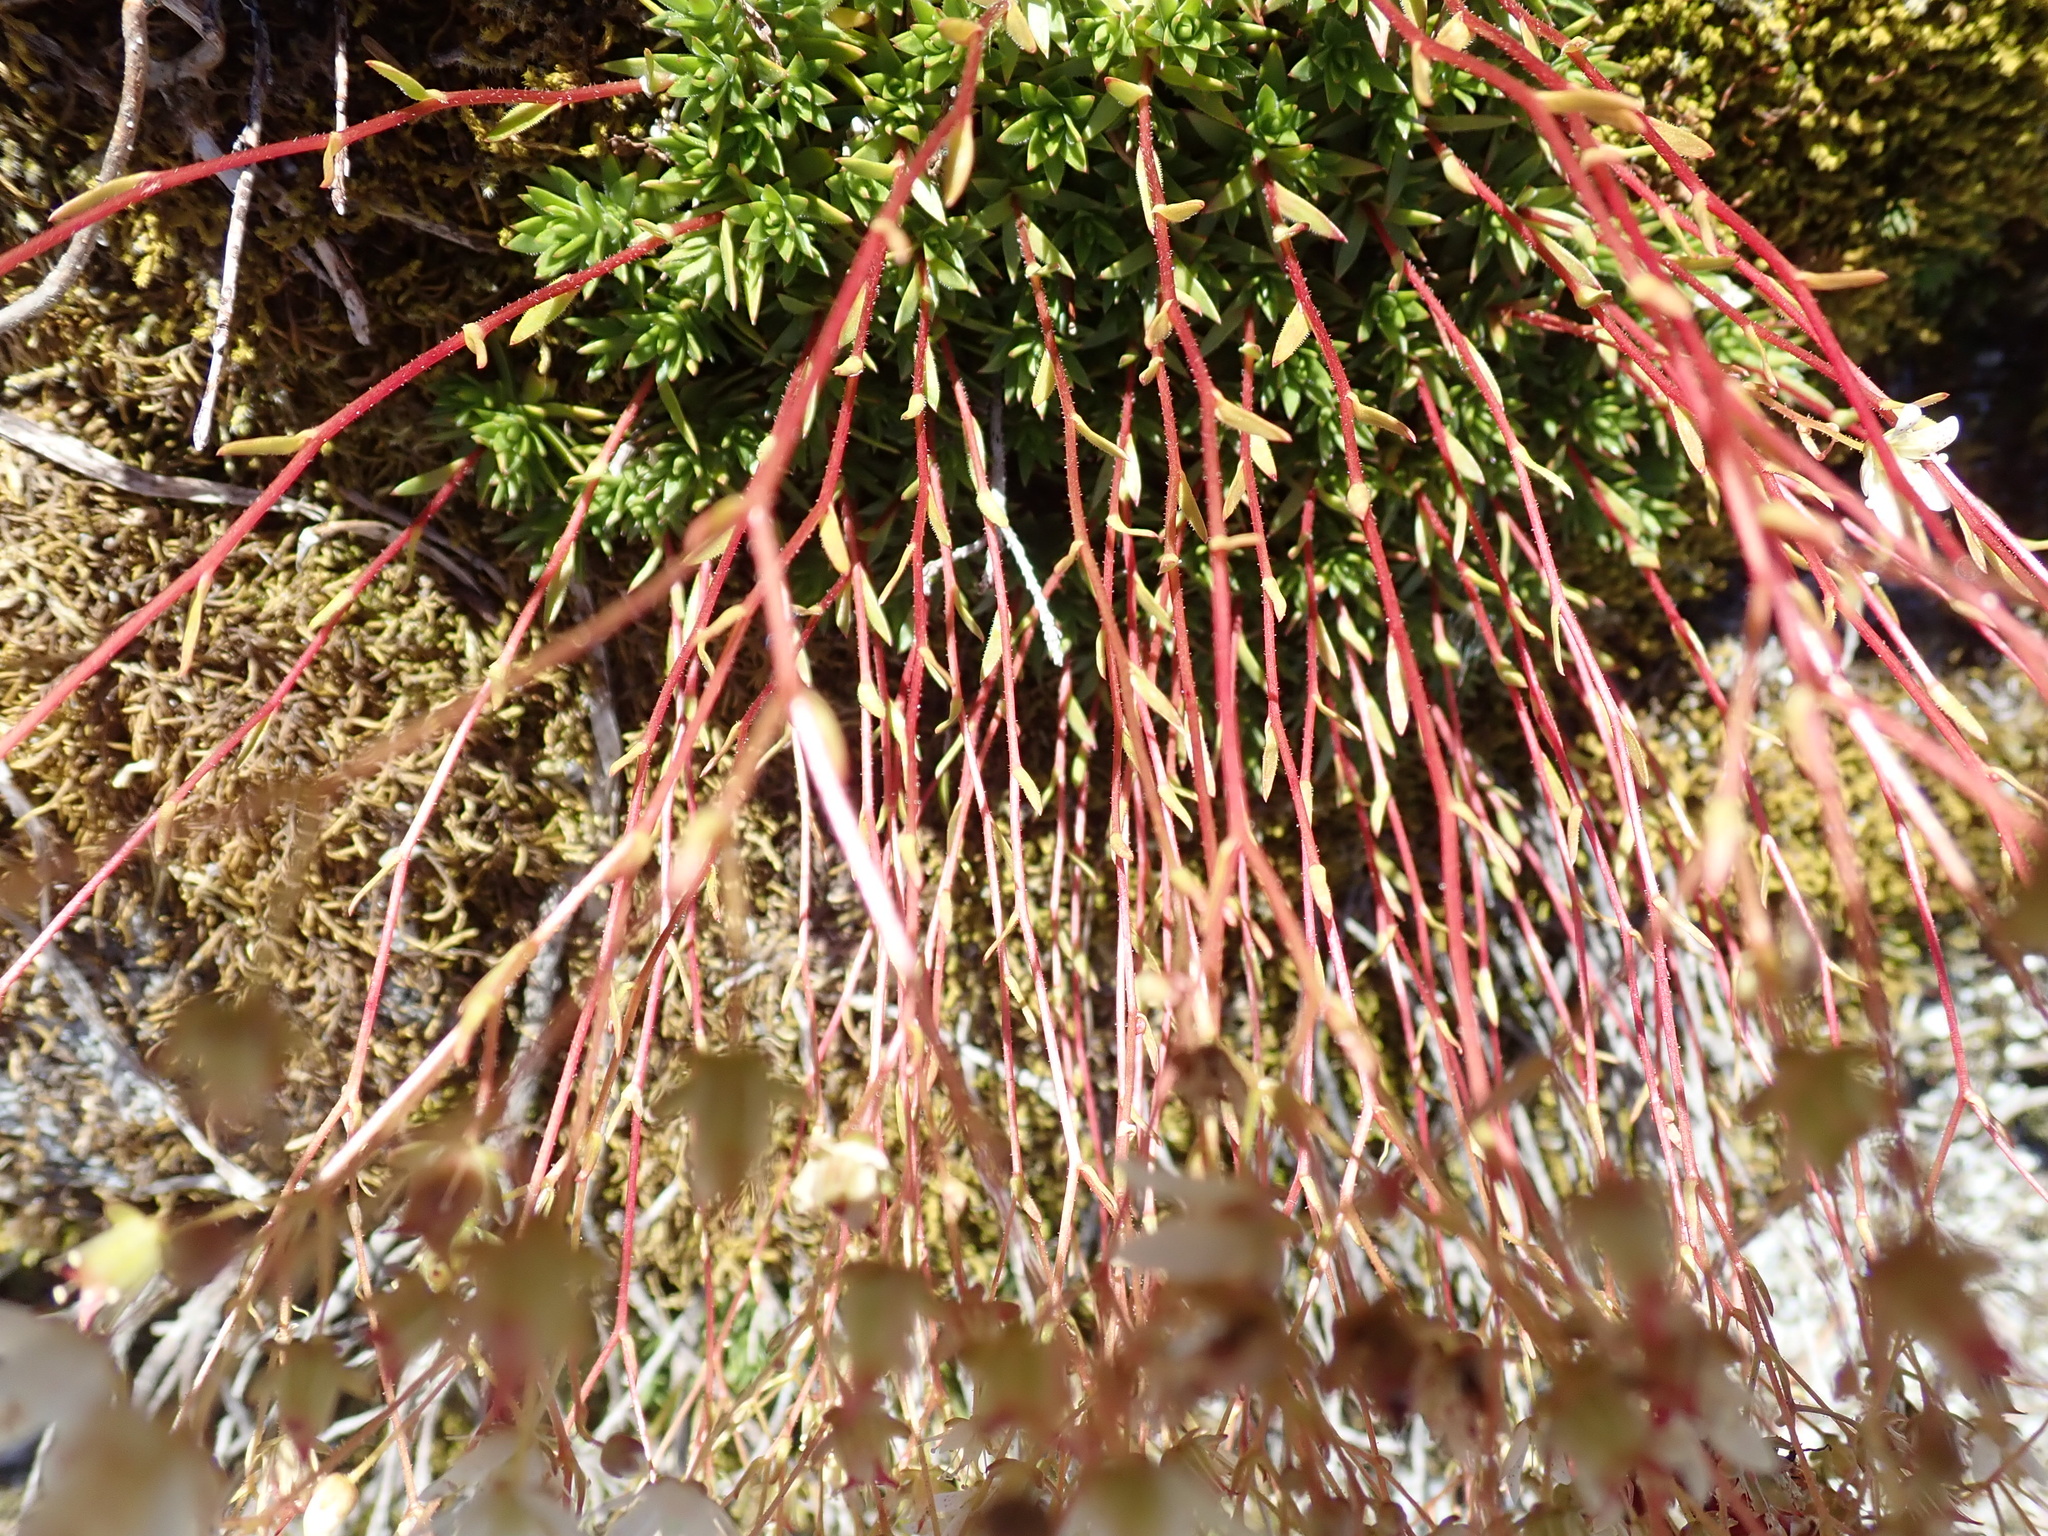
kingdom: Plantae
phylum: Tracheophyta
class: Magnoliopsida
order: Saxifragales
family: Saxifragaceae
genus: Saxifraga
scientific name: Saxifraga bronchialis
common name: Matted saxifrage
